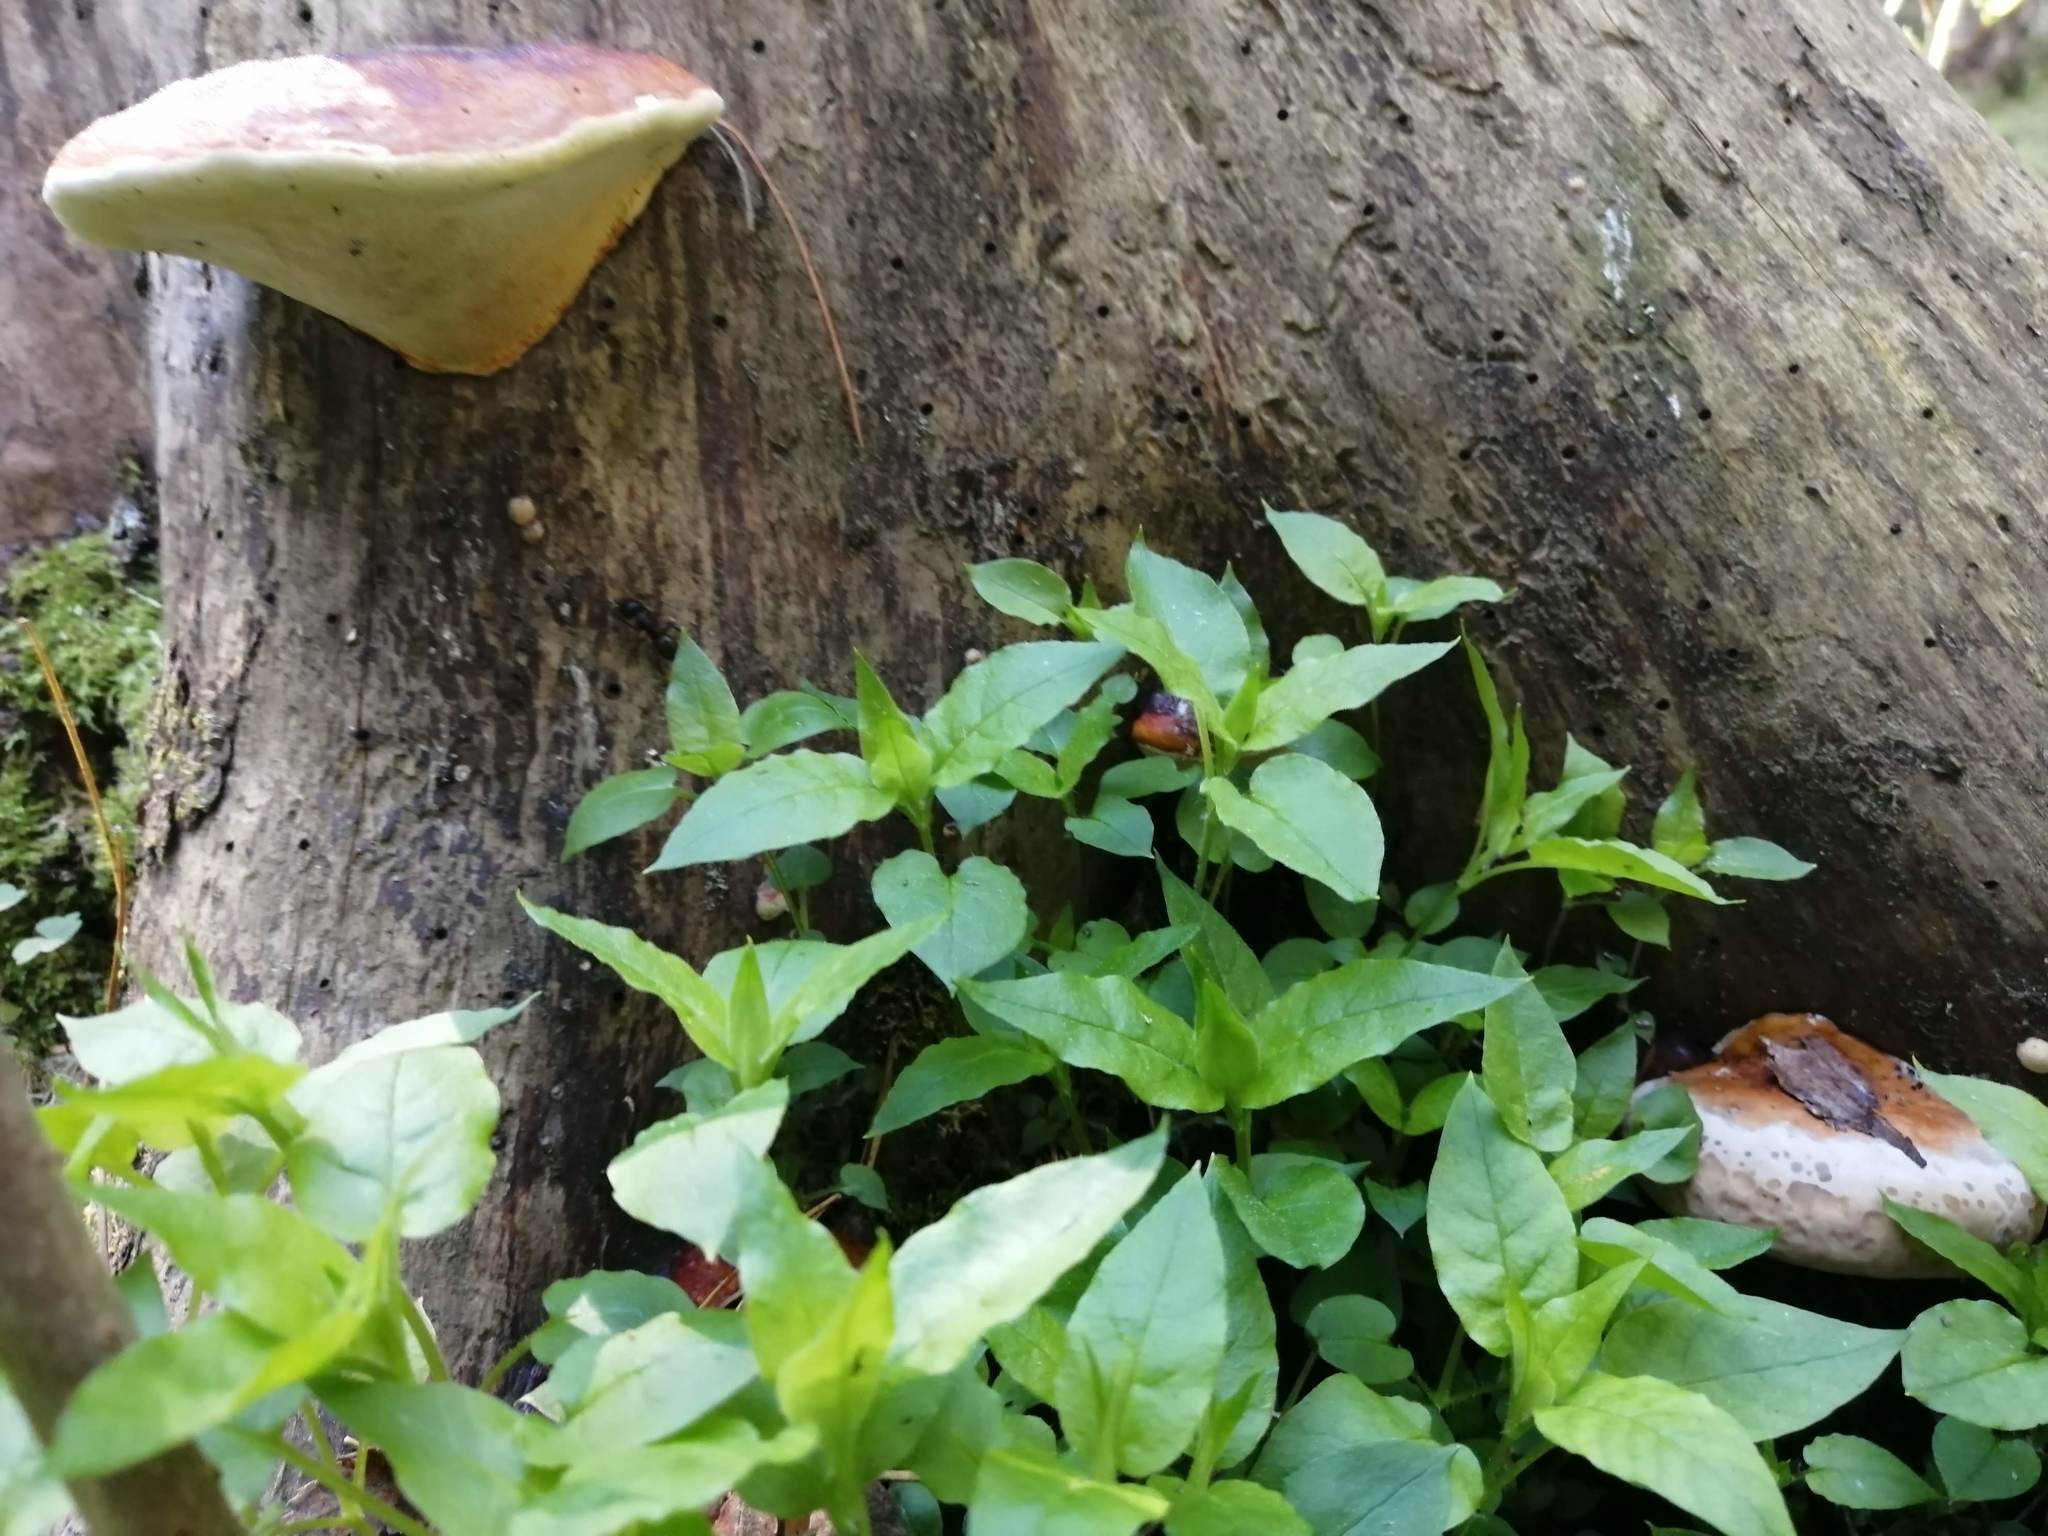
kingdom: Fungi
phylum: Basidiomycota
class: Agaricomycetes
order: Polyporales
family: Fomitopsidaceae
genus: Fomitopsis
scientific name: Fomitopsis pinicola
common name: Red-belted bracket
